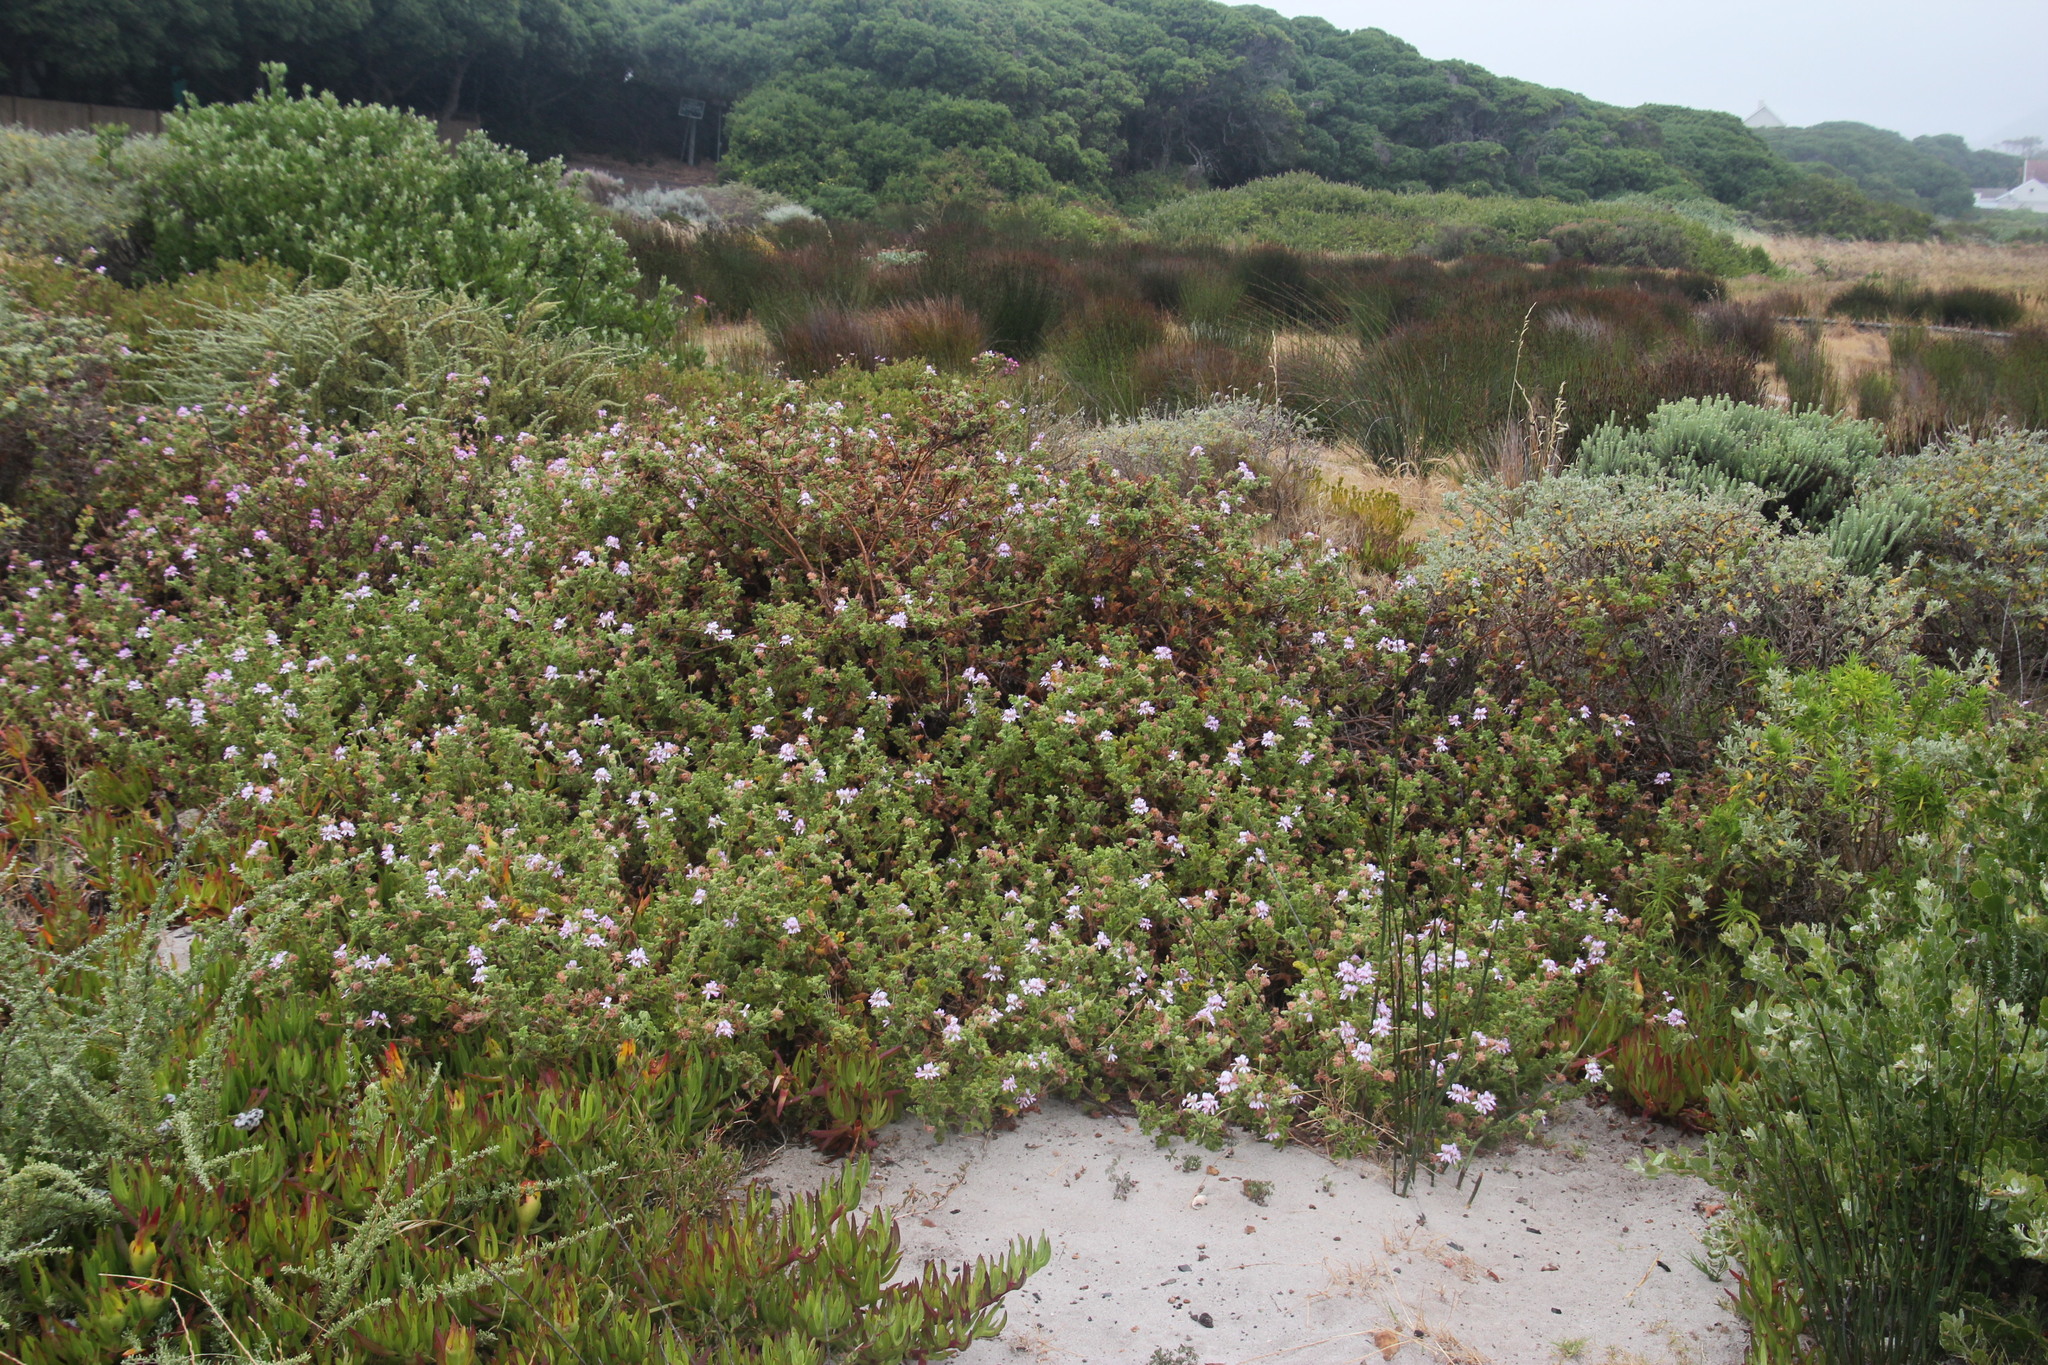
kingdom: Plantae
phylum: Tracheophyta
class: Magnoliopsida
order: Geraniales
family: Geraniaceae
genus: Pelargonium
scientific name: Pelargonium capitatum
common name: Rose scented geranium
